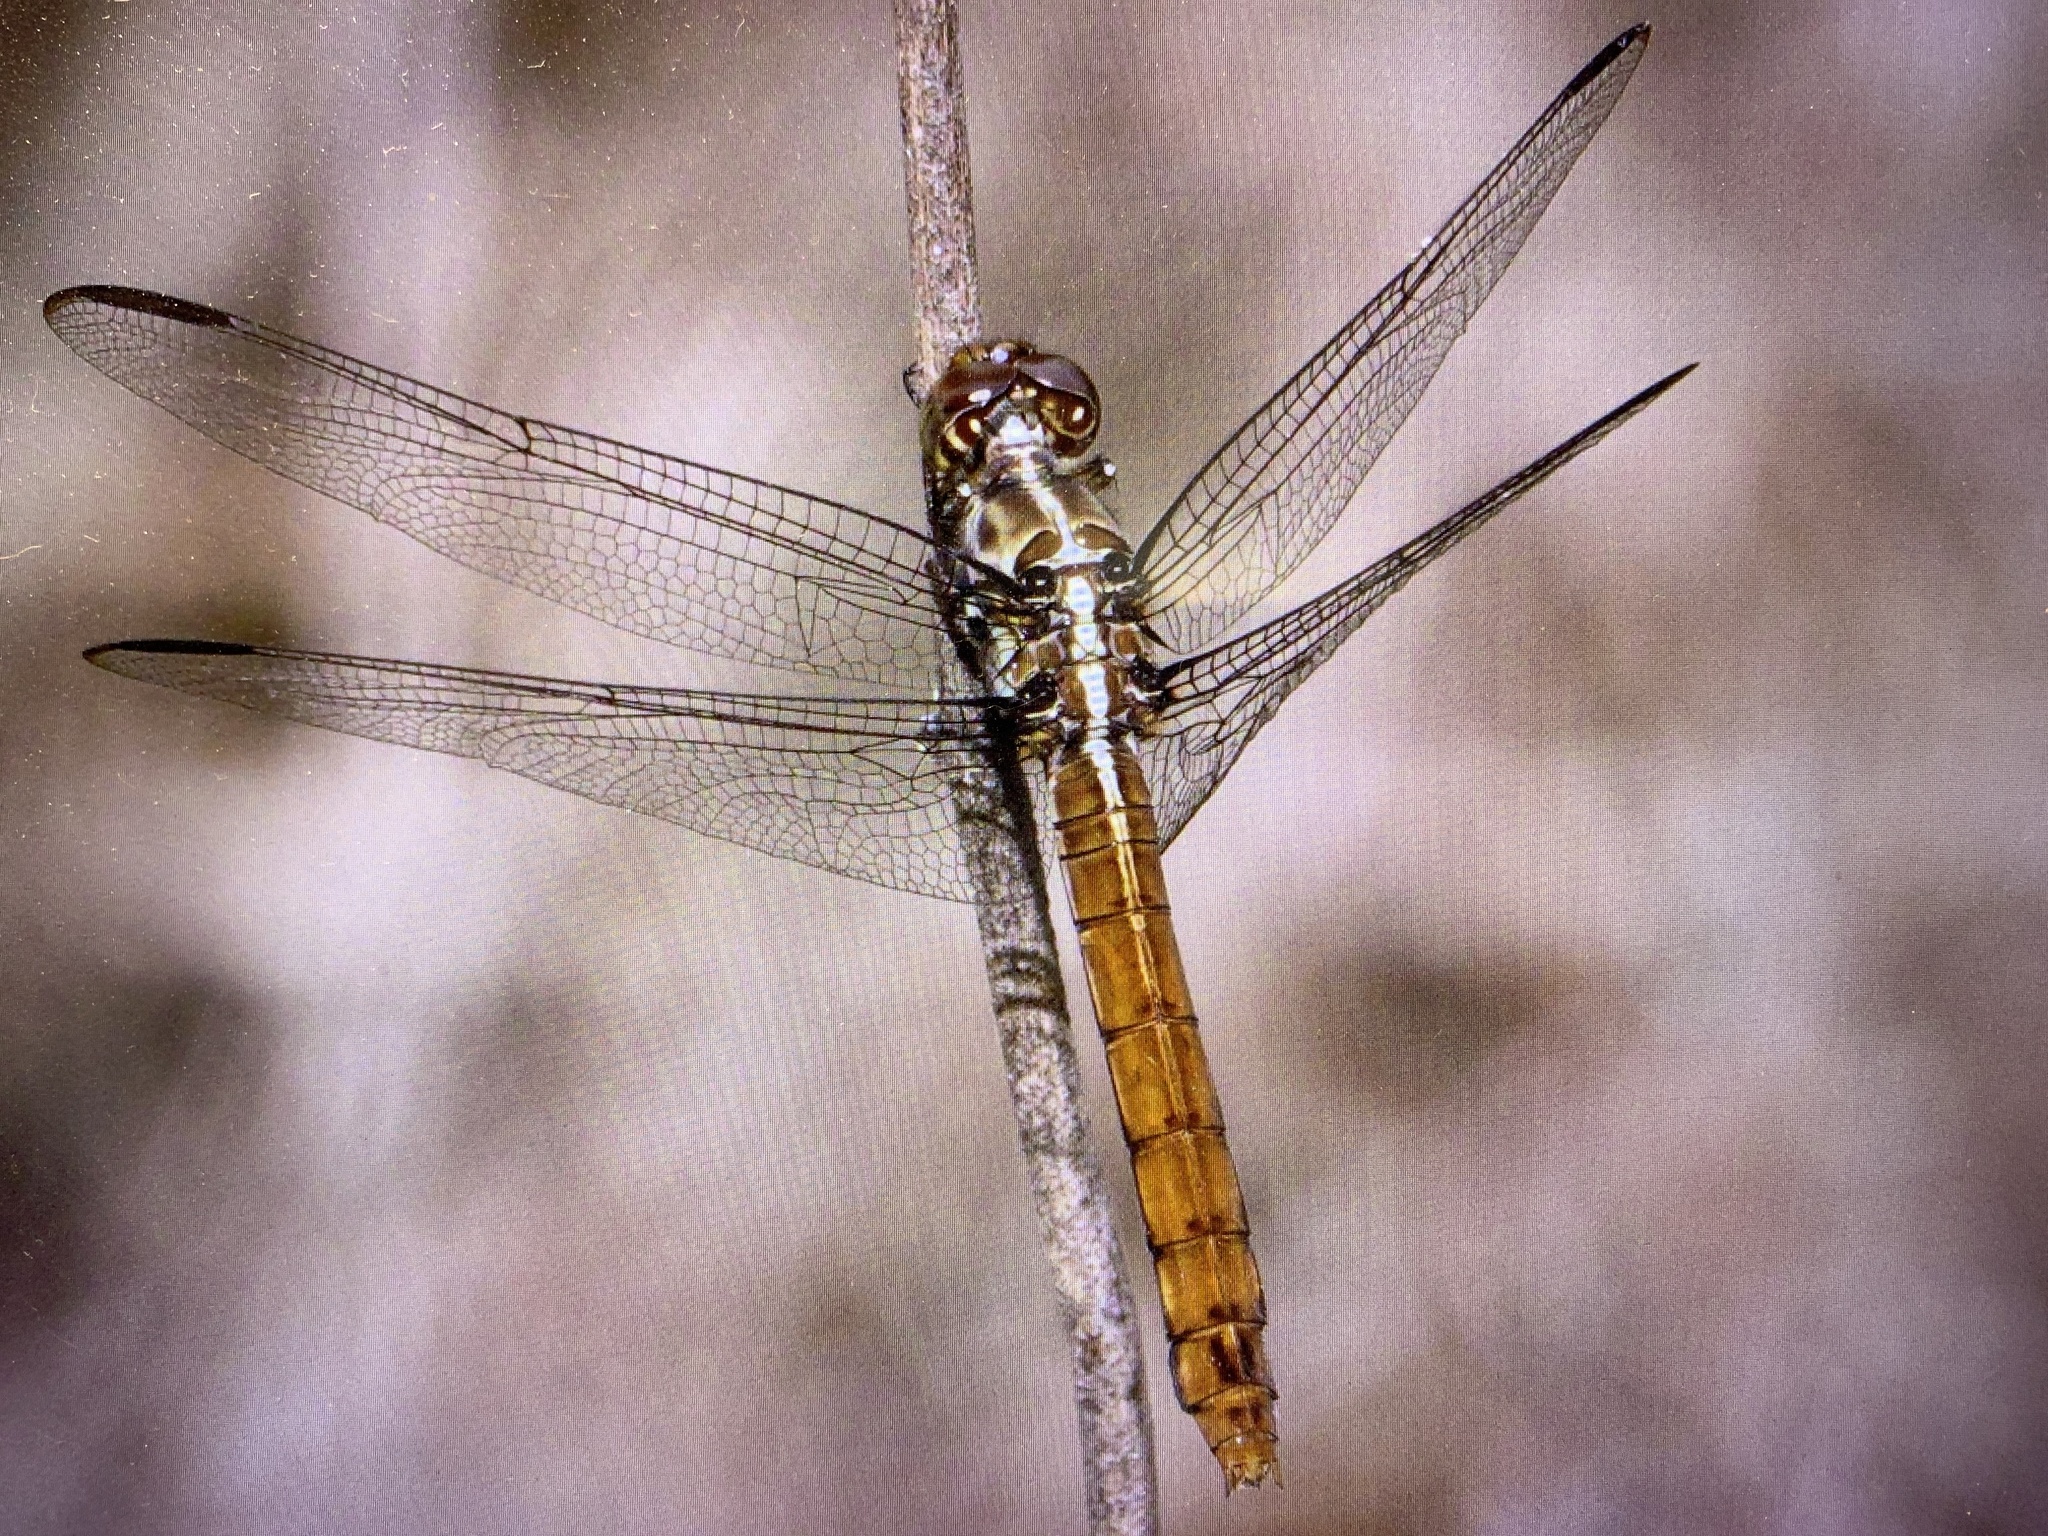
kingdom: Animalia
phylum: Arthropoda
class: Insecta
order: Odonata
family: Libellulidae
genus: Orthemis
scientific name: Orthemis ferruginea
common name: Roseate skimmer
